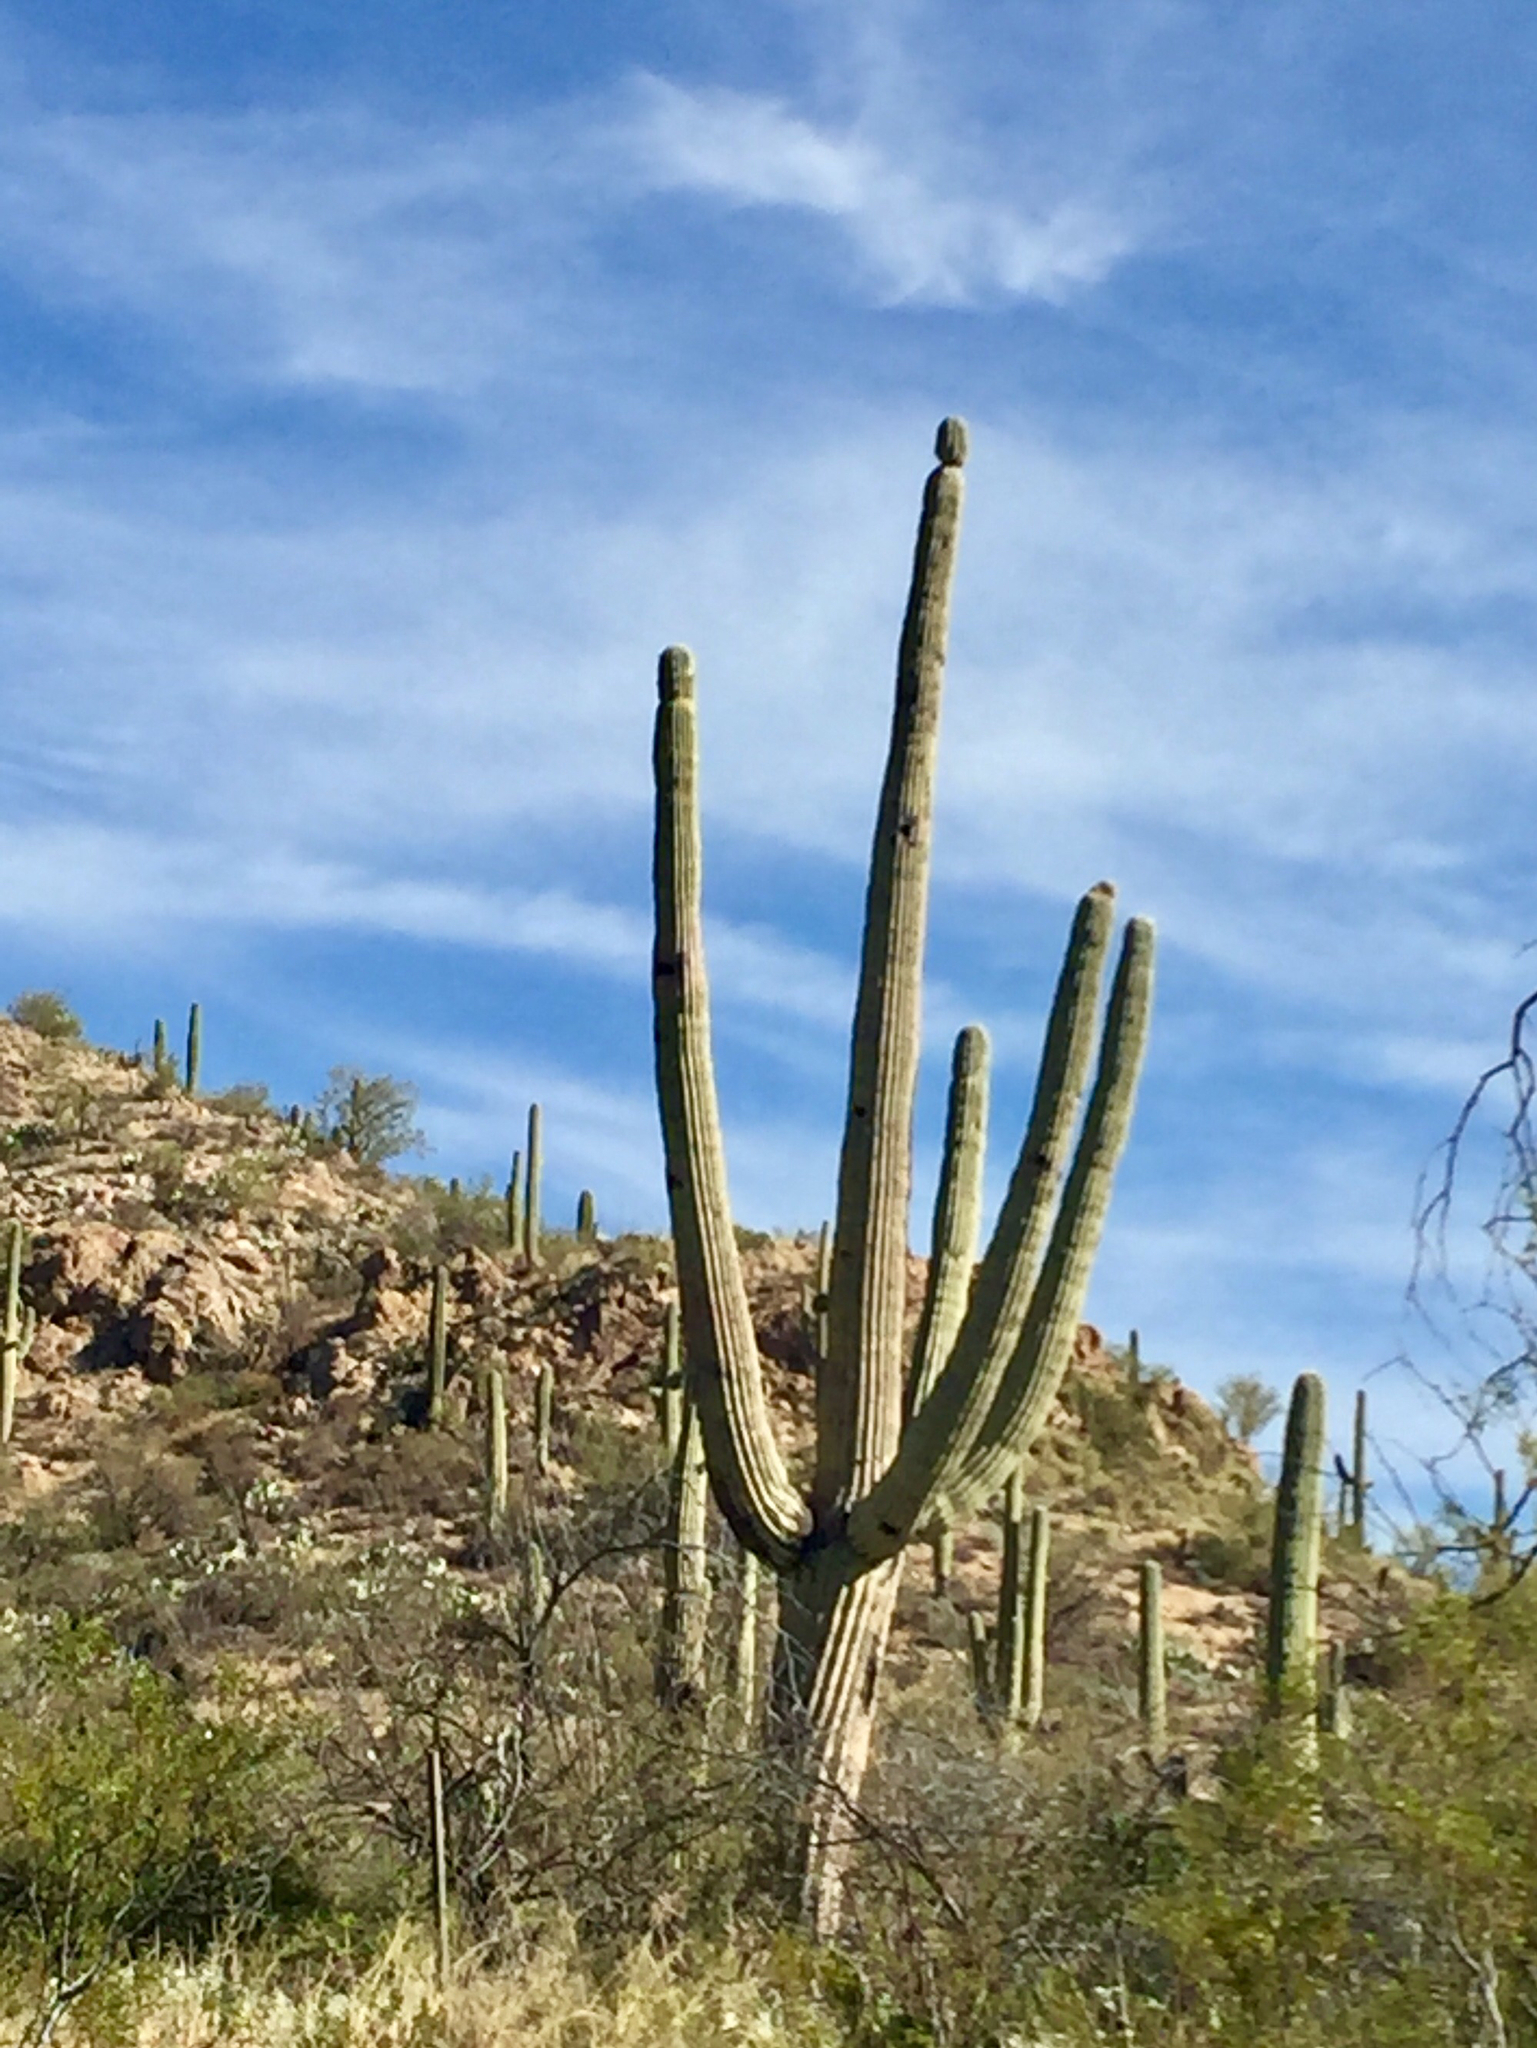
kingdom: Plantae
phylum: Tracheophyta
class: Magnoliopsida
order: Caryophyllales
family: Cactaceae
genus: Carnegiea
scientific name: Carnegiea gigantea
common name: Saguaro
